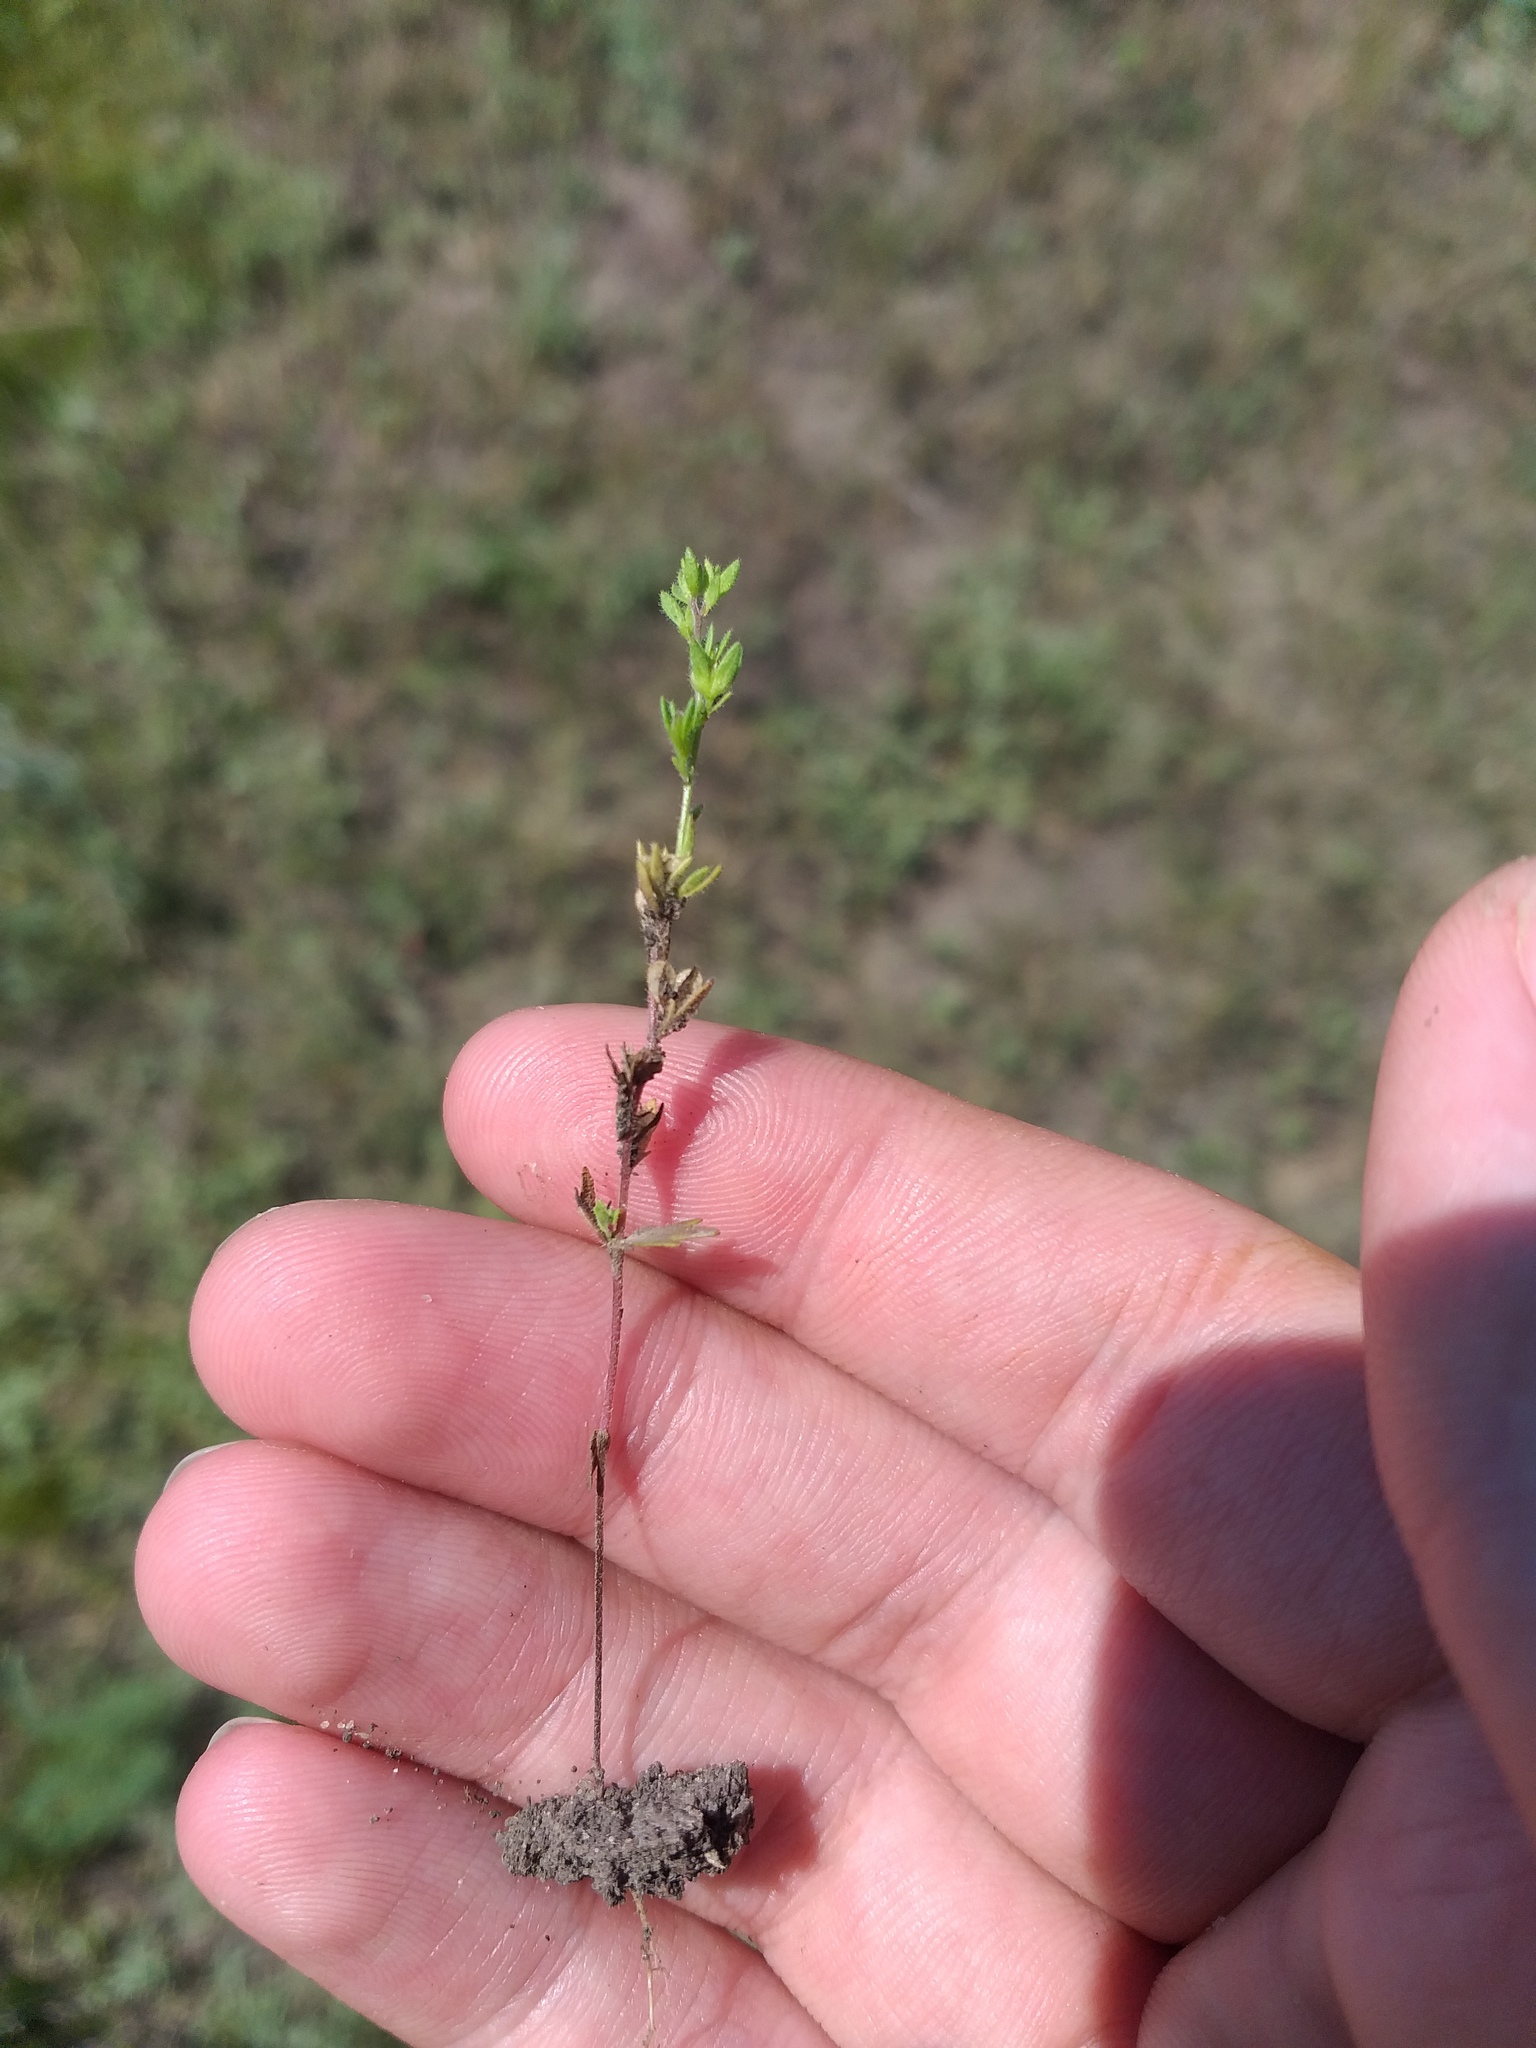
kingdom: Plantae
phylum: Tracheophyta
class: Magnoliopsida
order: Lamiales
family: Plantaginaceae
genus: Veronica
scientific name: Veronica verna
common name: Spring speedwell
